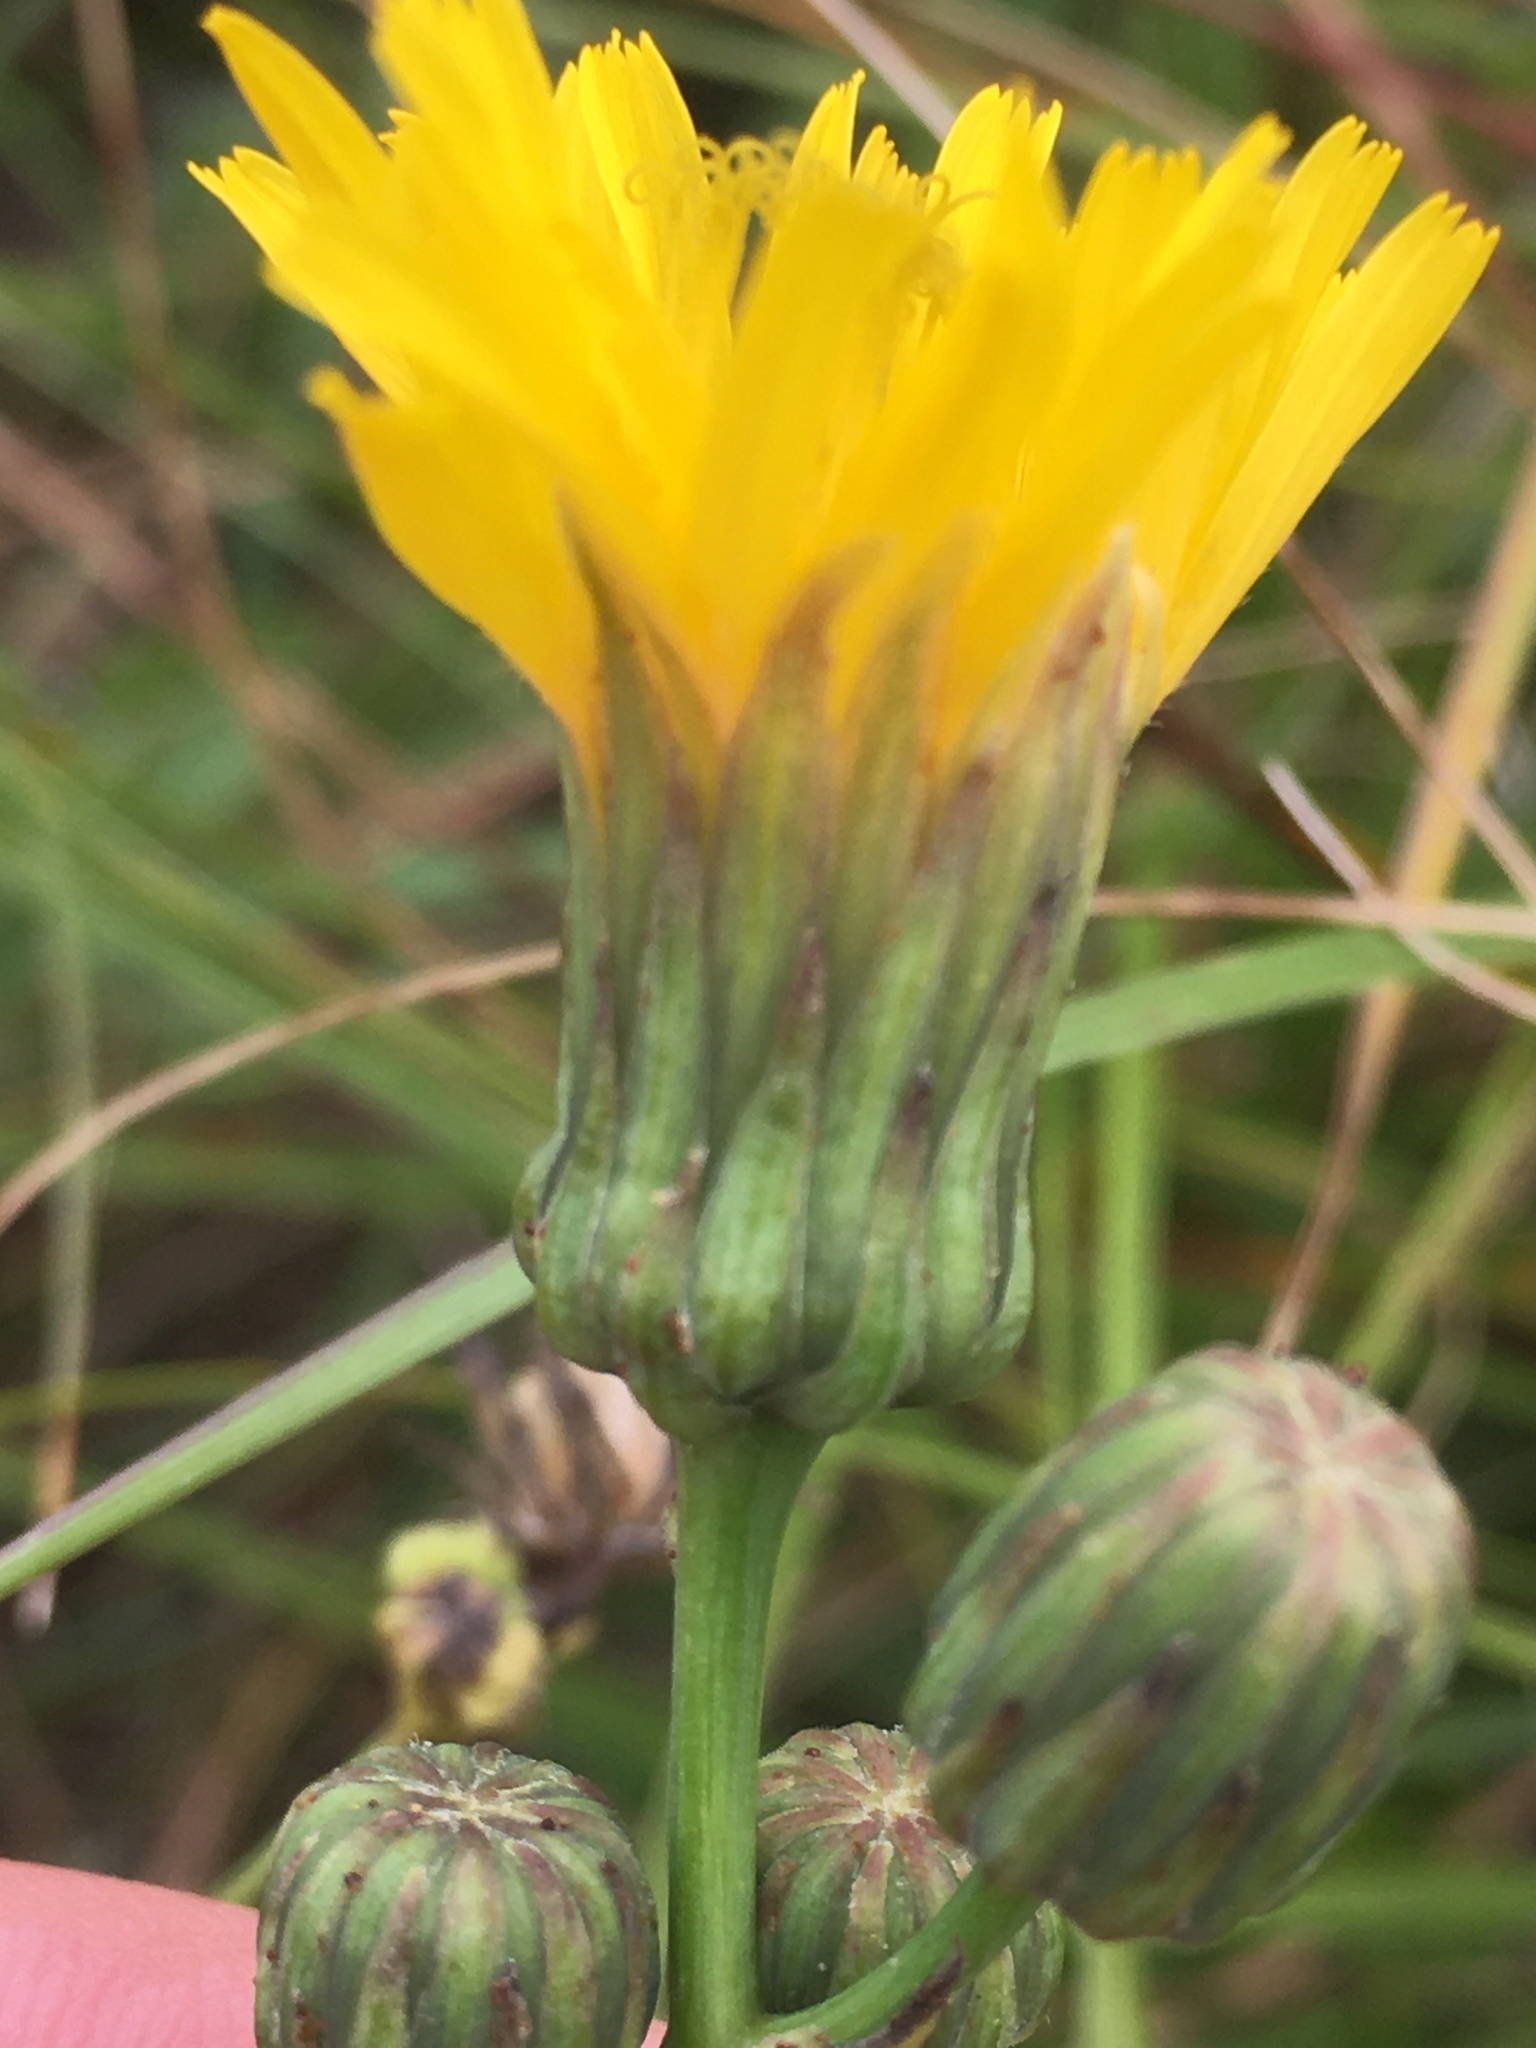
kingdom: Plantae
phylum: Tracheophyta
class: Magnoliopsida
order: Asterales
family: Asteraceae
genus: Sonchus
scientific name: Sonchus arvensis
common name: Perennial sow-thistle
